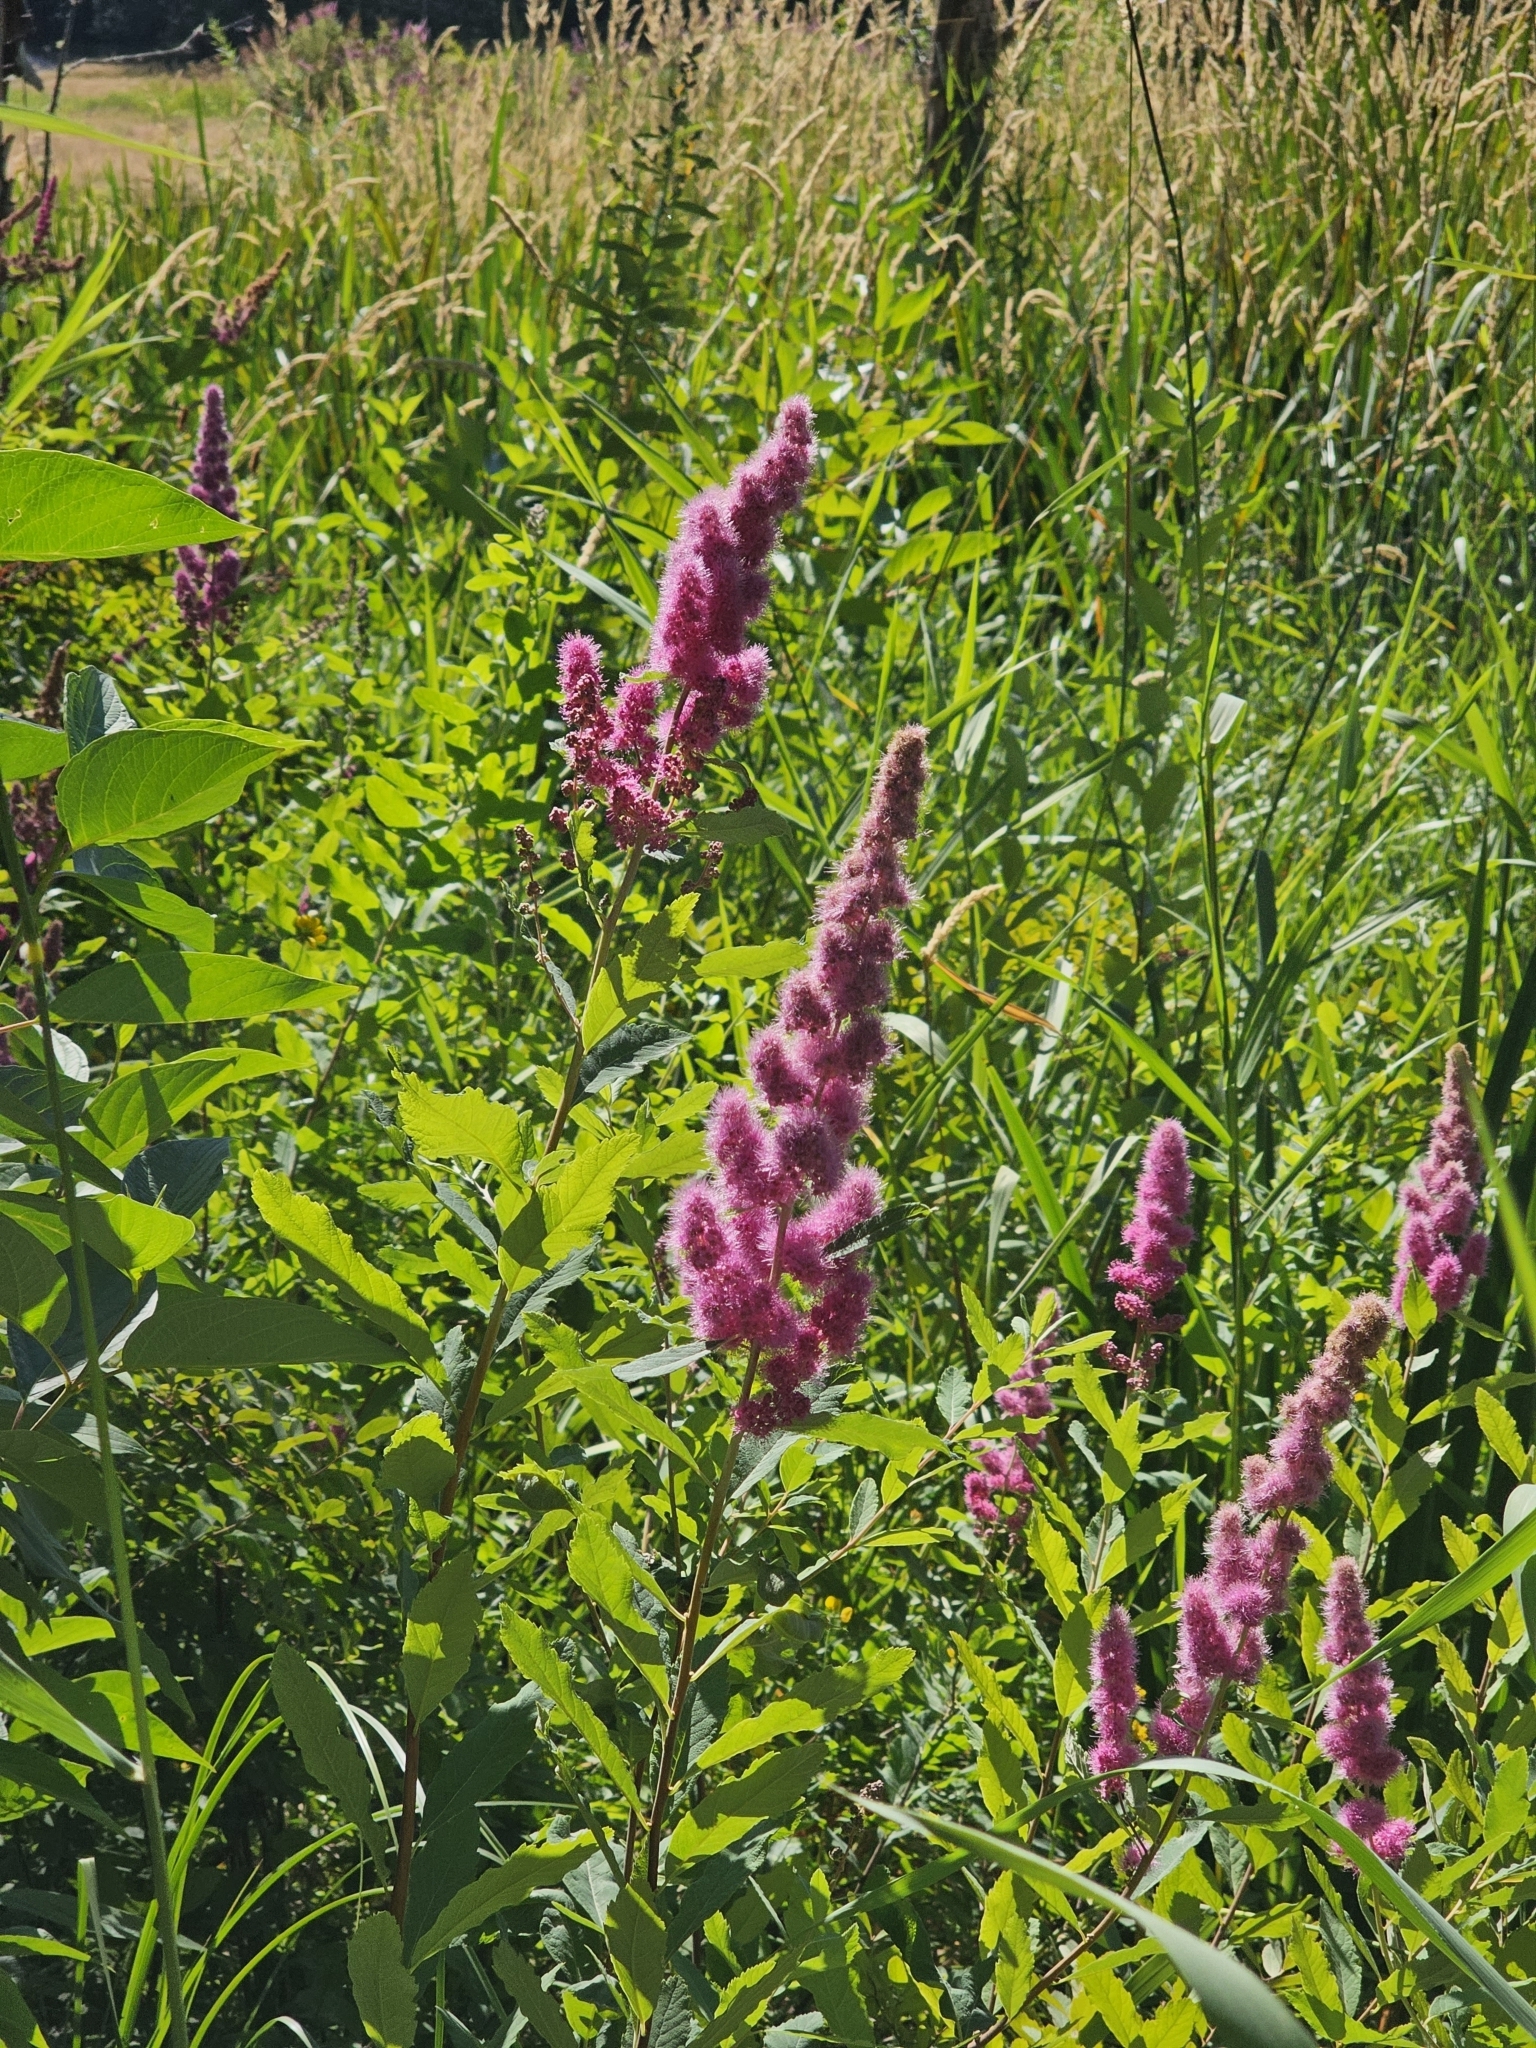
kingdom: Plantae
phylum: Tracheophyta
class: Magnoliopsida
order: Rosales
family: Rosaceae
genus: Spiraea
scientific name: Spiraea douglasii
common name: Steeplebush
